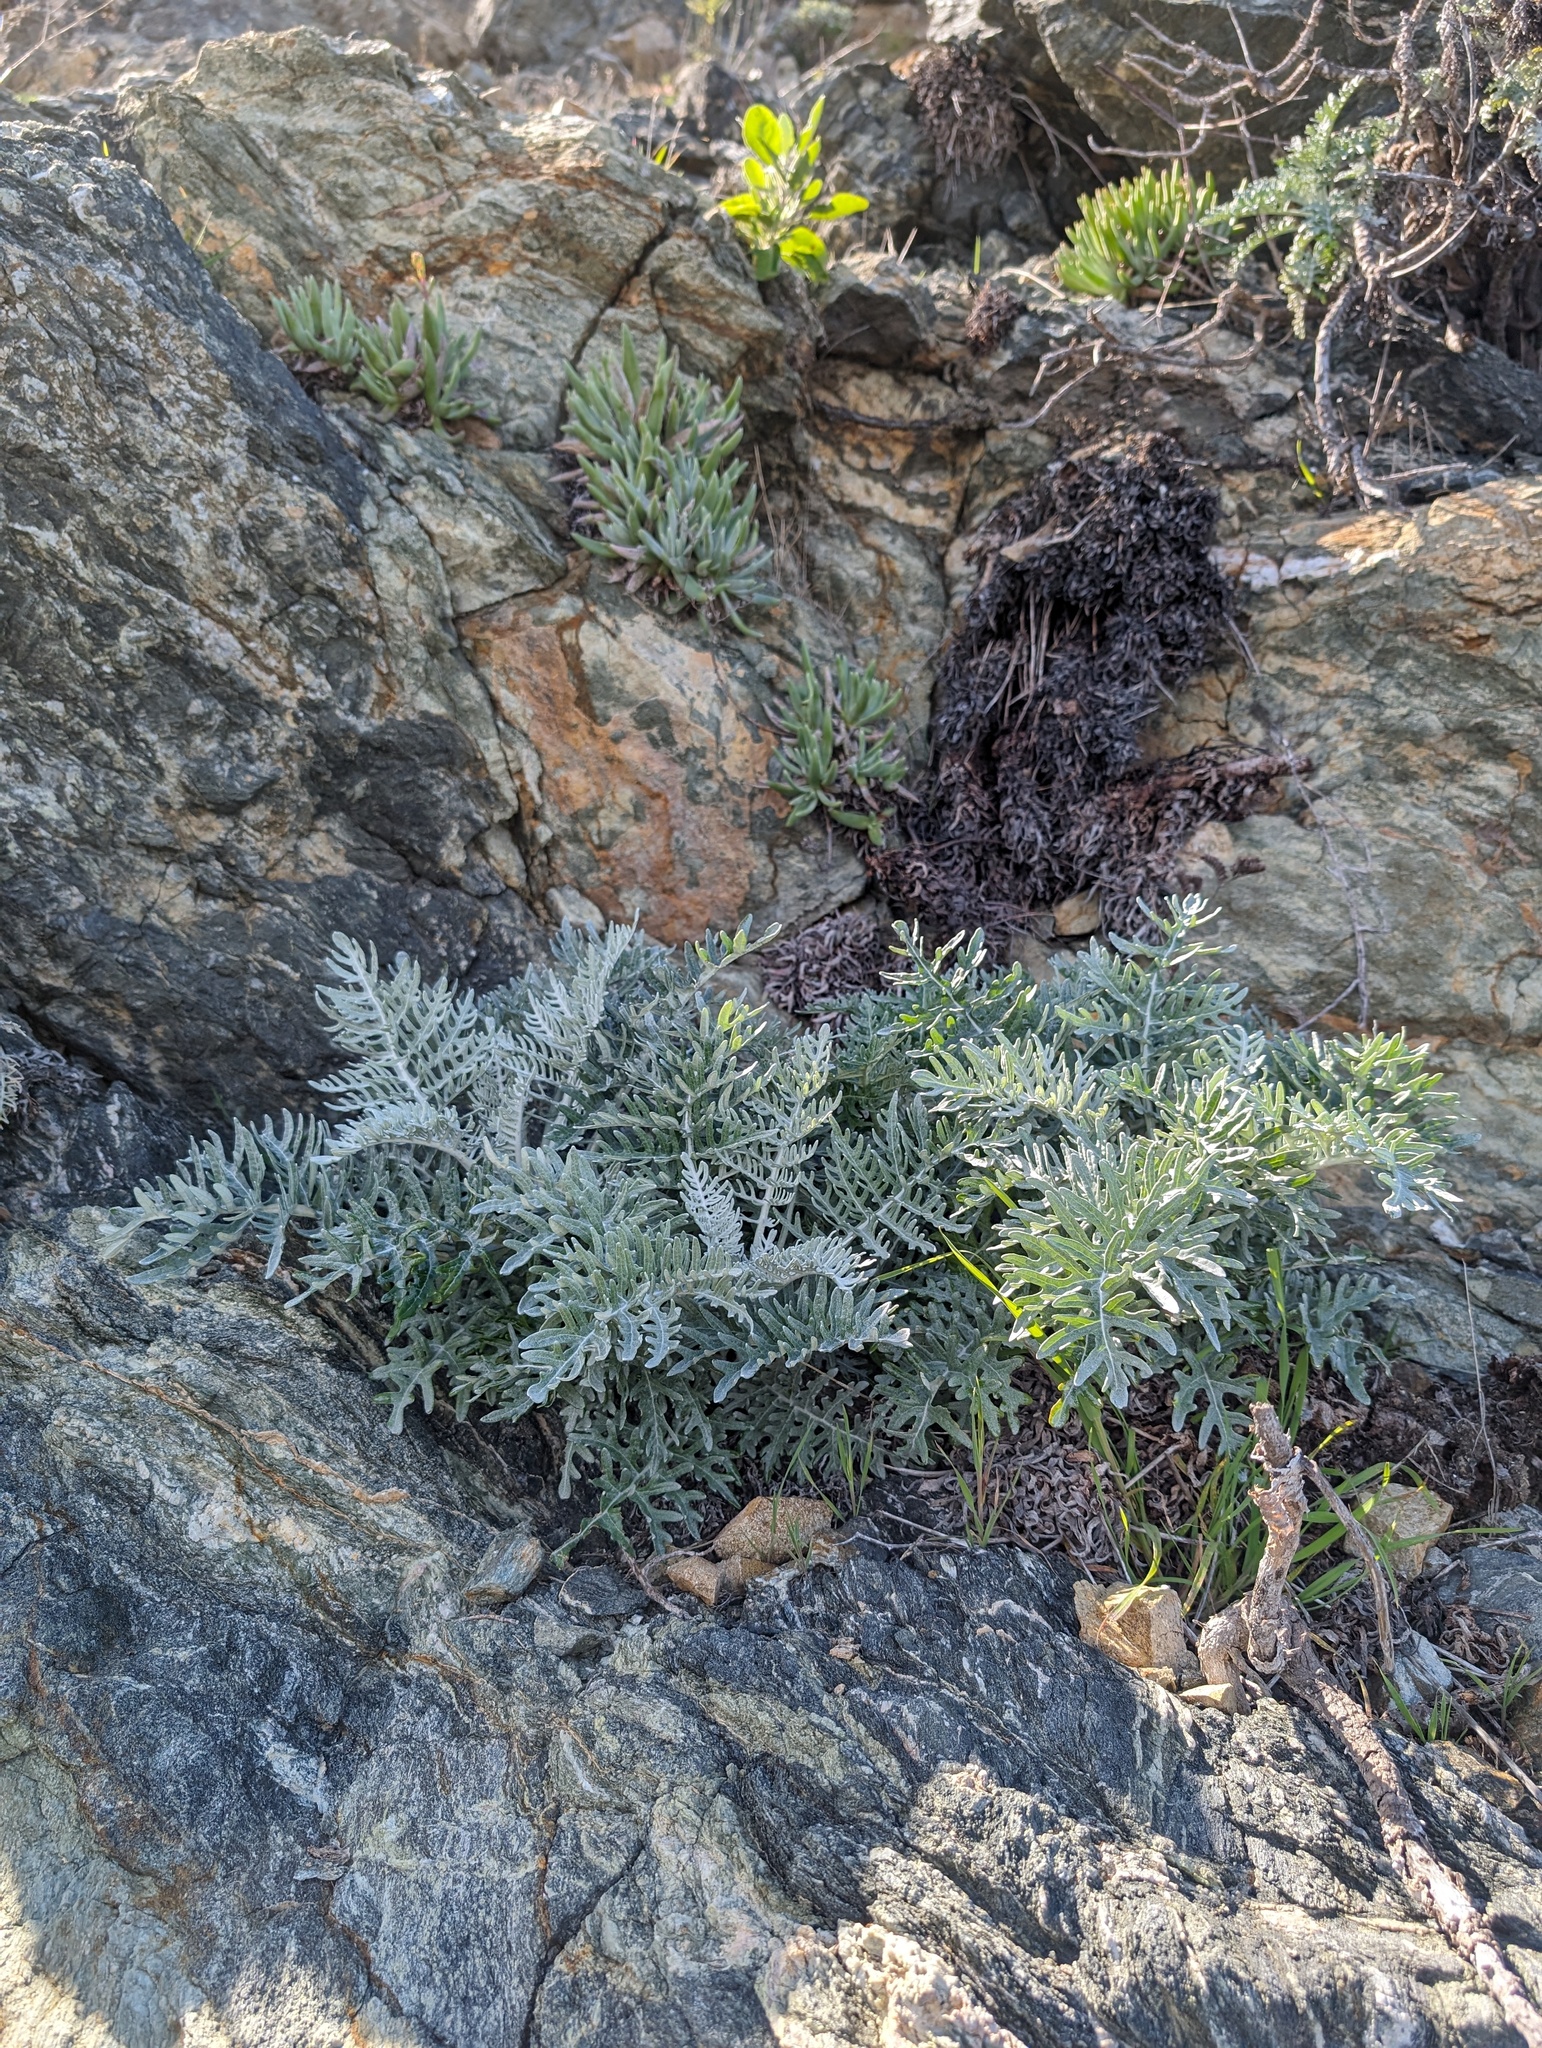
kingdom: Plantae
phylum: Tracheophyta
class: Magnoliopsida
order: Asterales
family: Asteraceae
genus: Constancea
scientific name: Constancea nevinii
